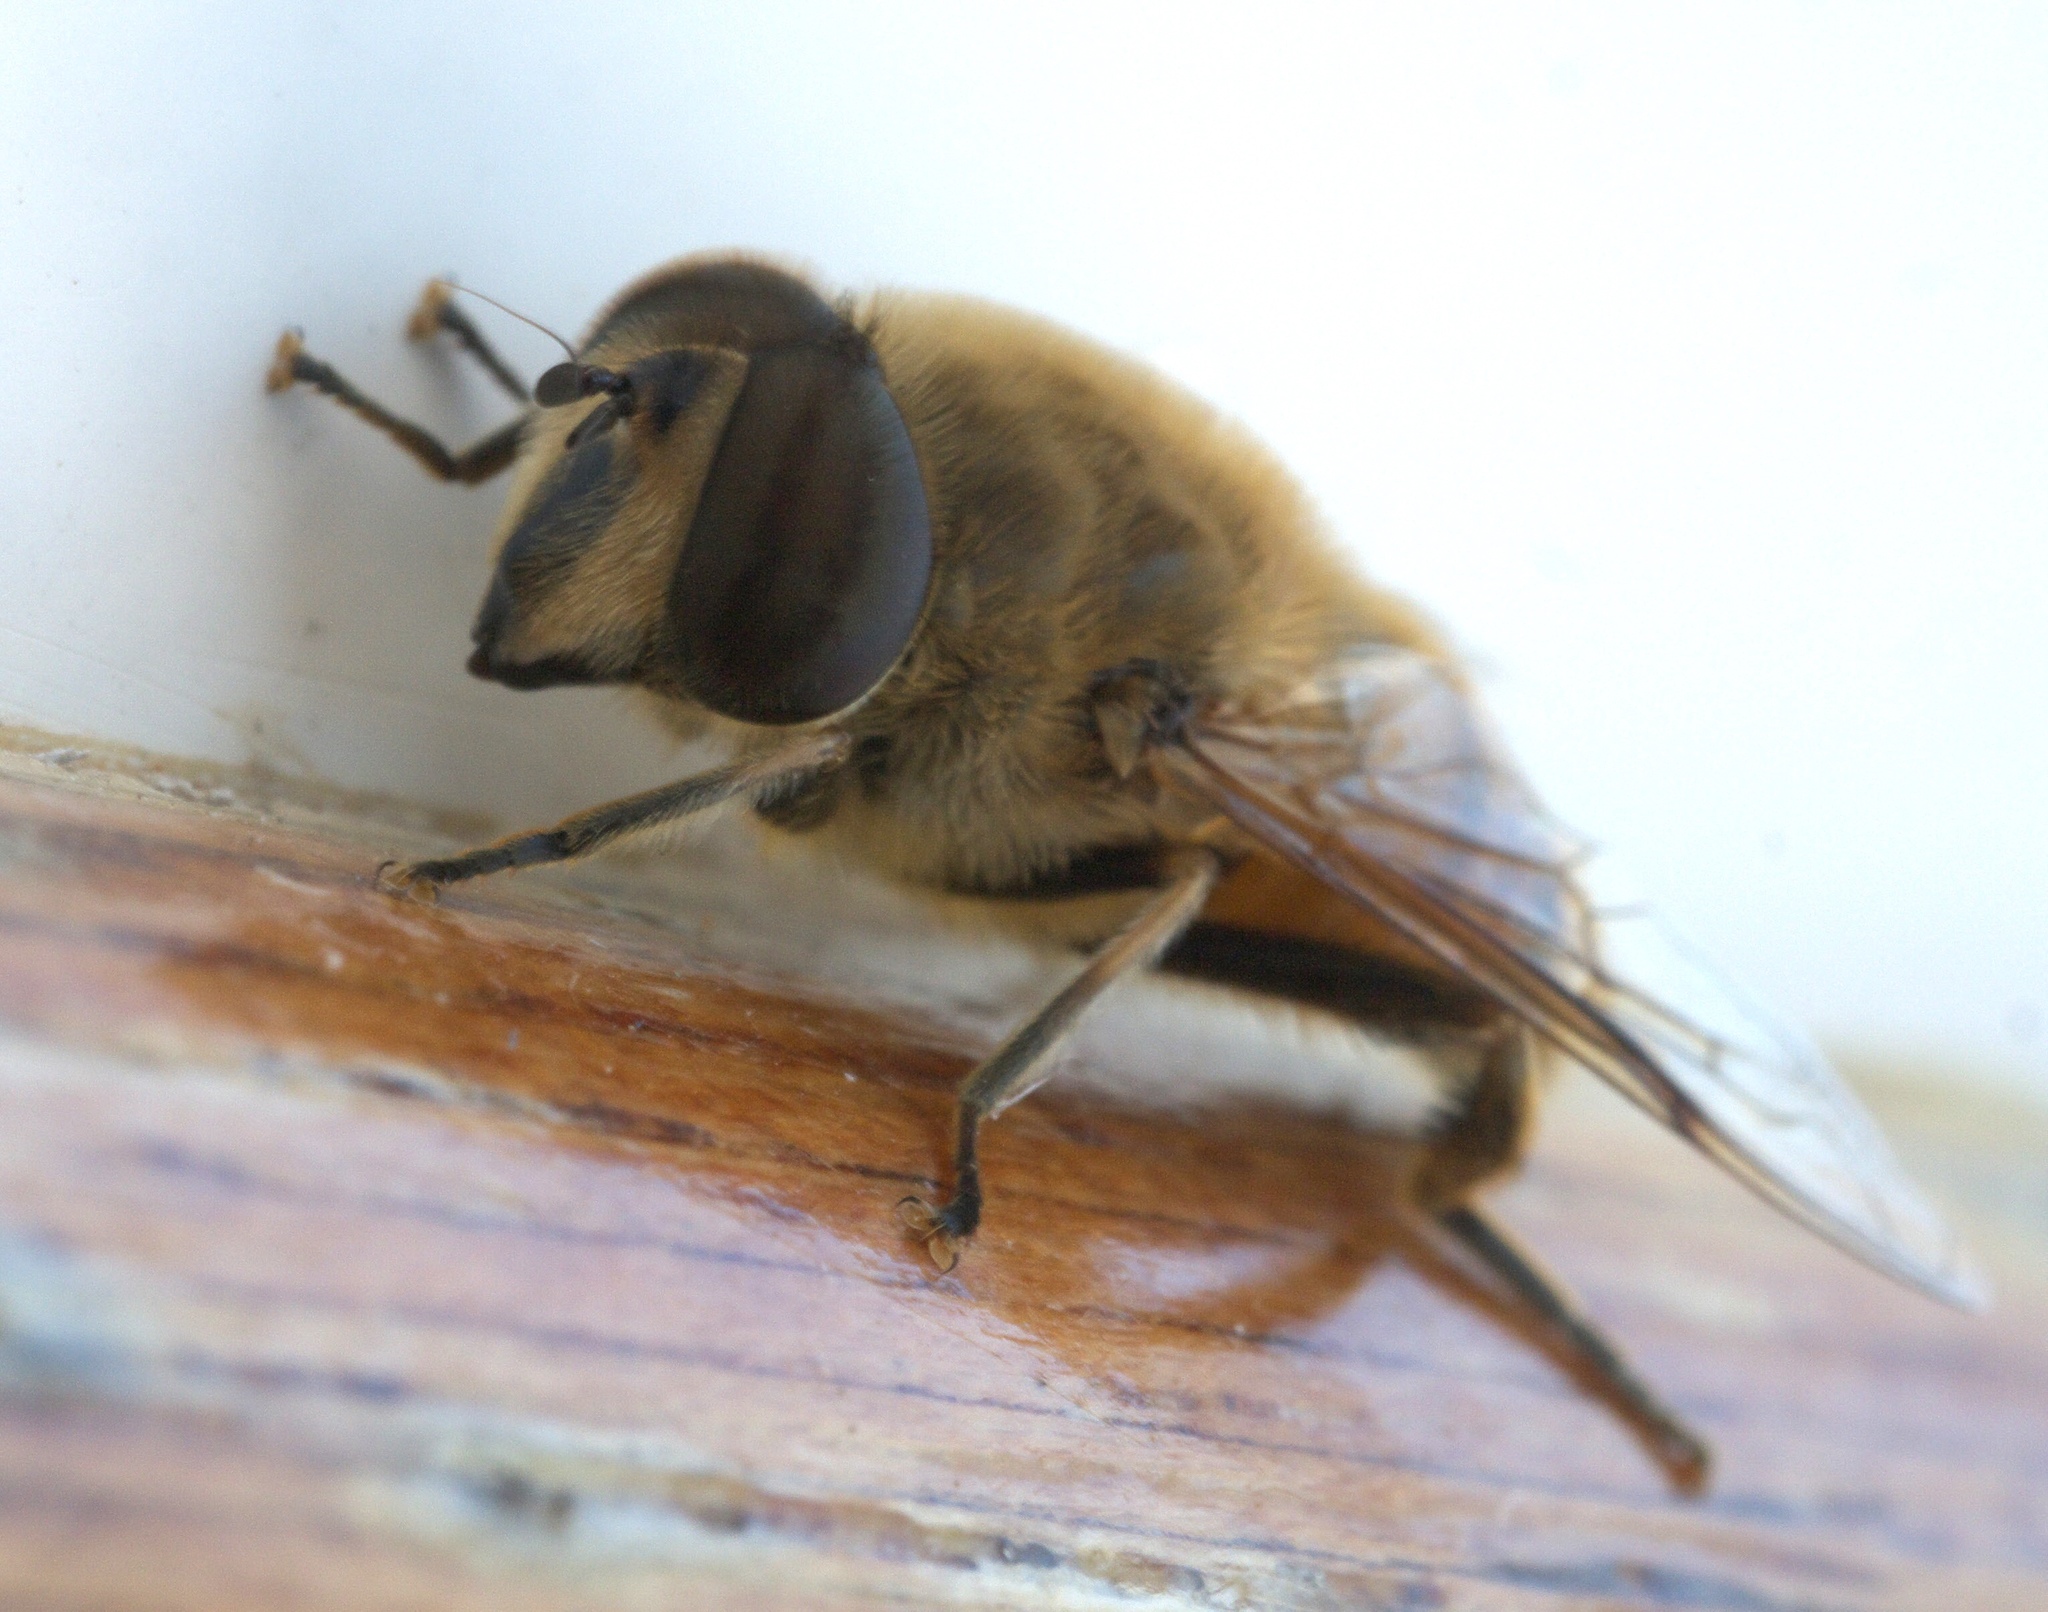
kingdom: Animalia
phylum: Arthropoda
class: Insecta
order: Diptera
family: Syrphidae
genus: Eristalis
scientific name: Eristalis tenax
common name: Drone fly
